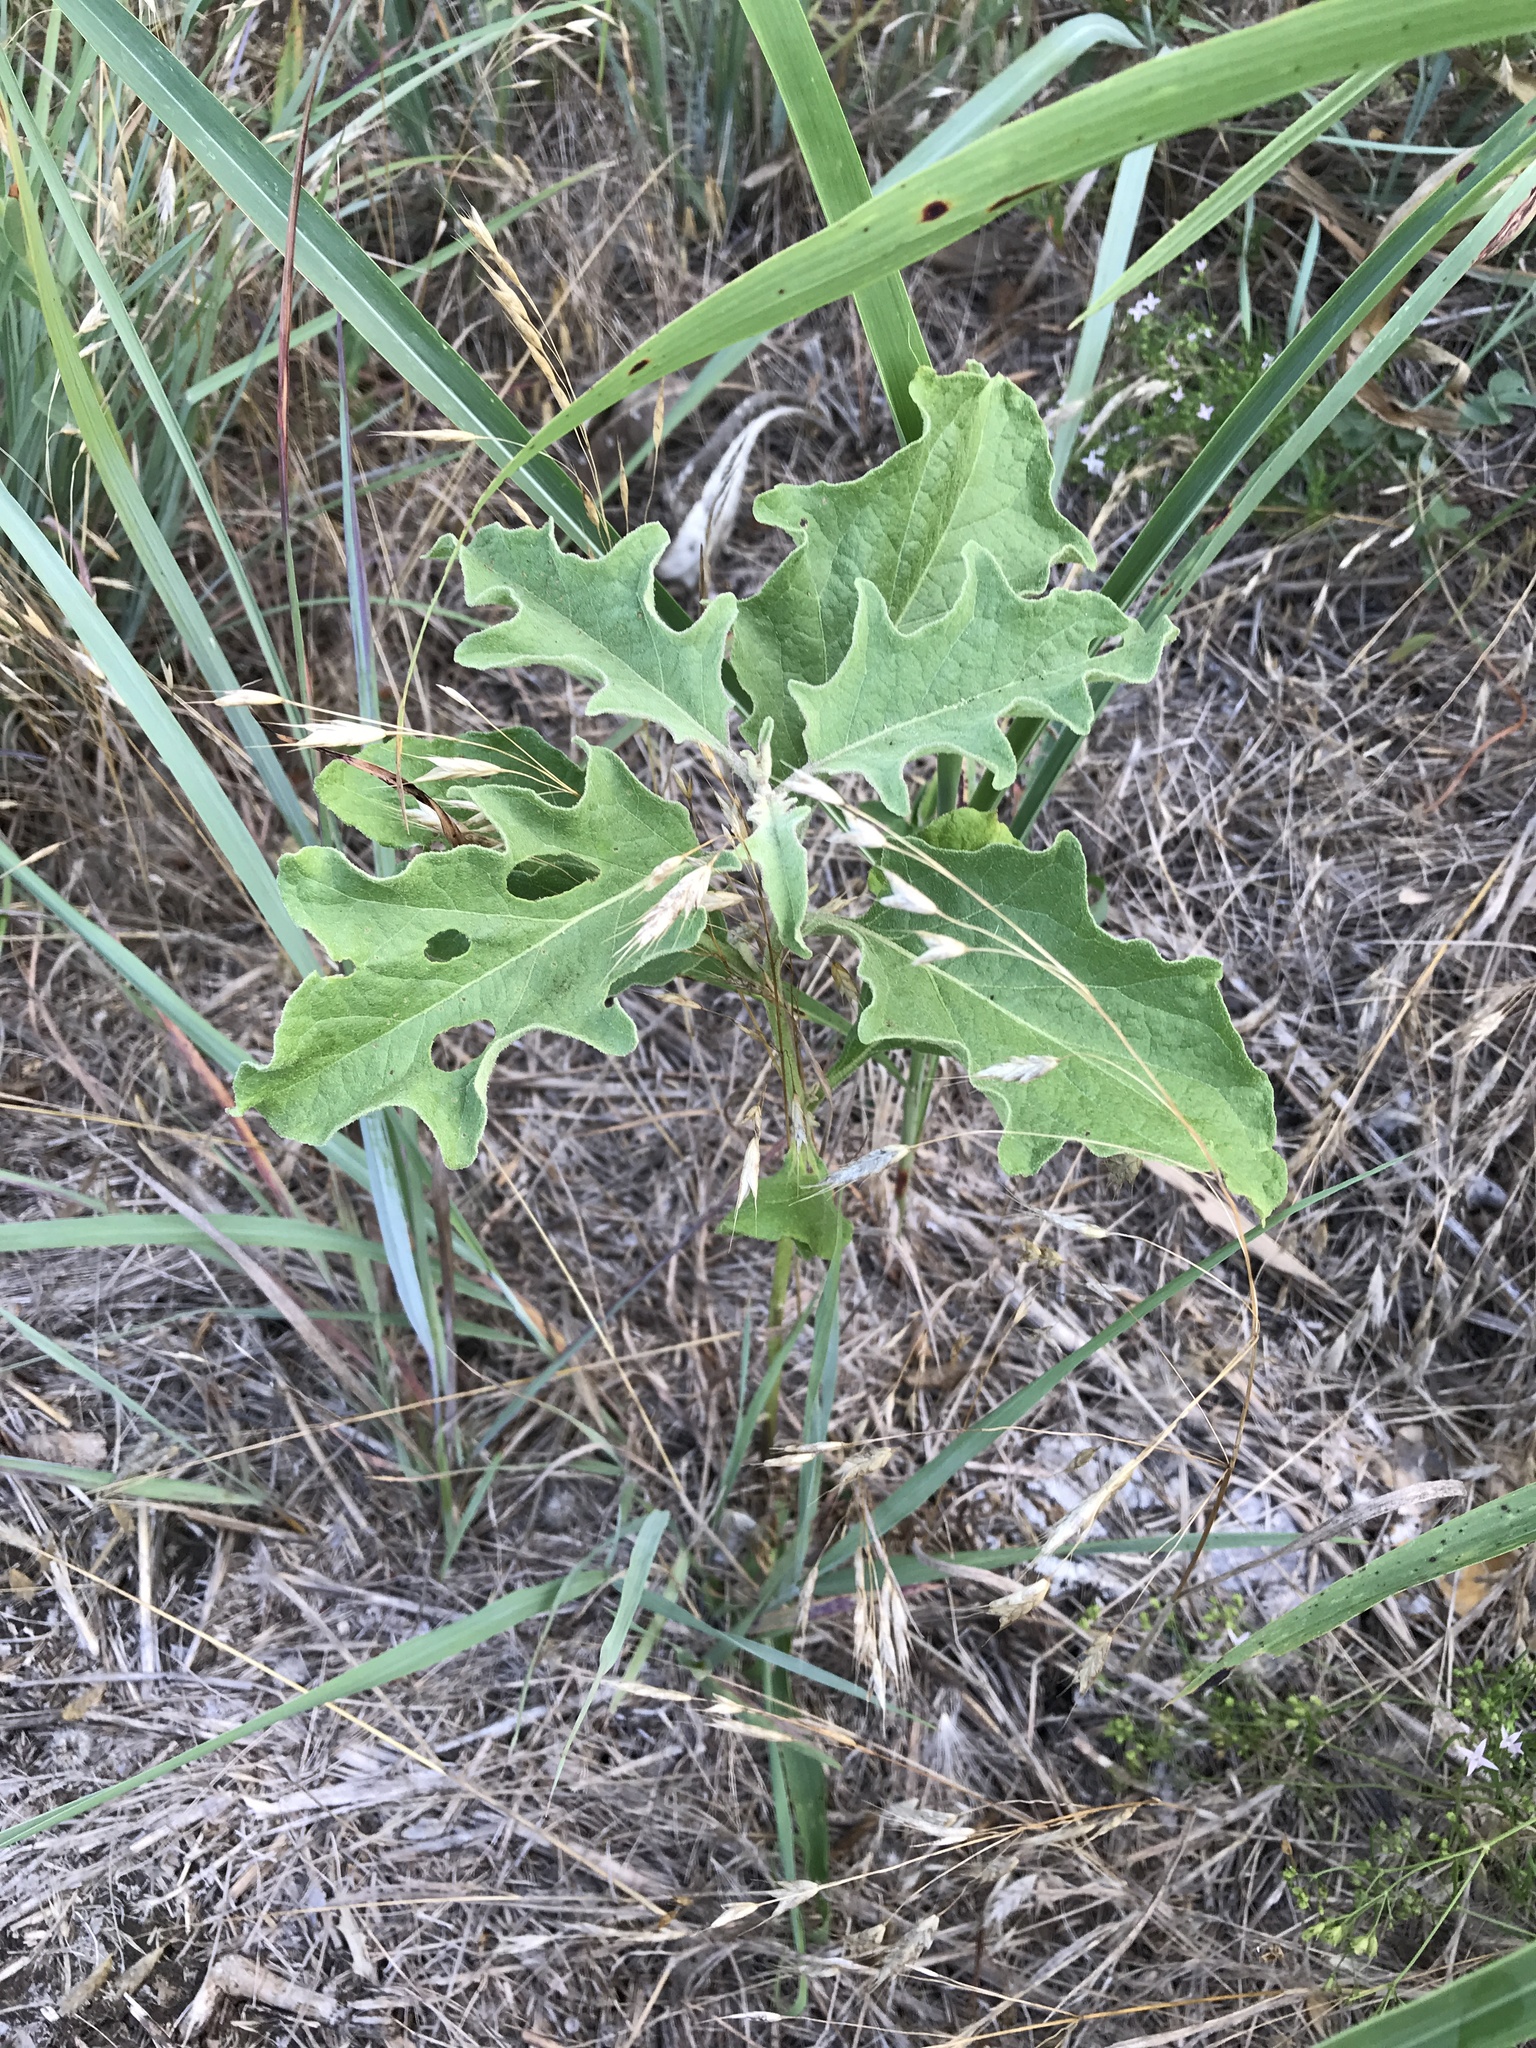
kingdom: Plantae
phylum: Tracheophyta
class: Magnoliopsida
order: Solanales
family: Solanaceae
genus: Solanum
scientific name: Solanum dimidiatum
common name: Carolina horse-nettle
